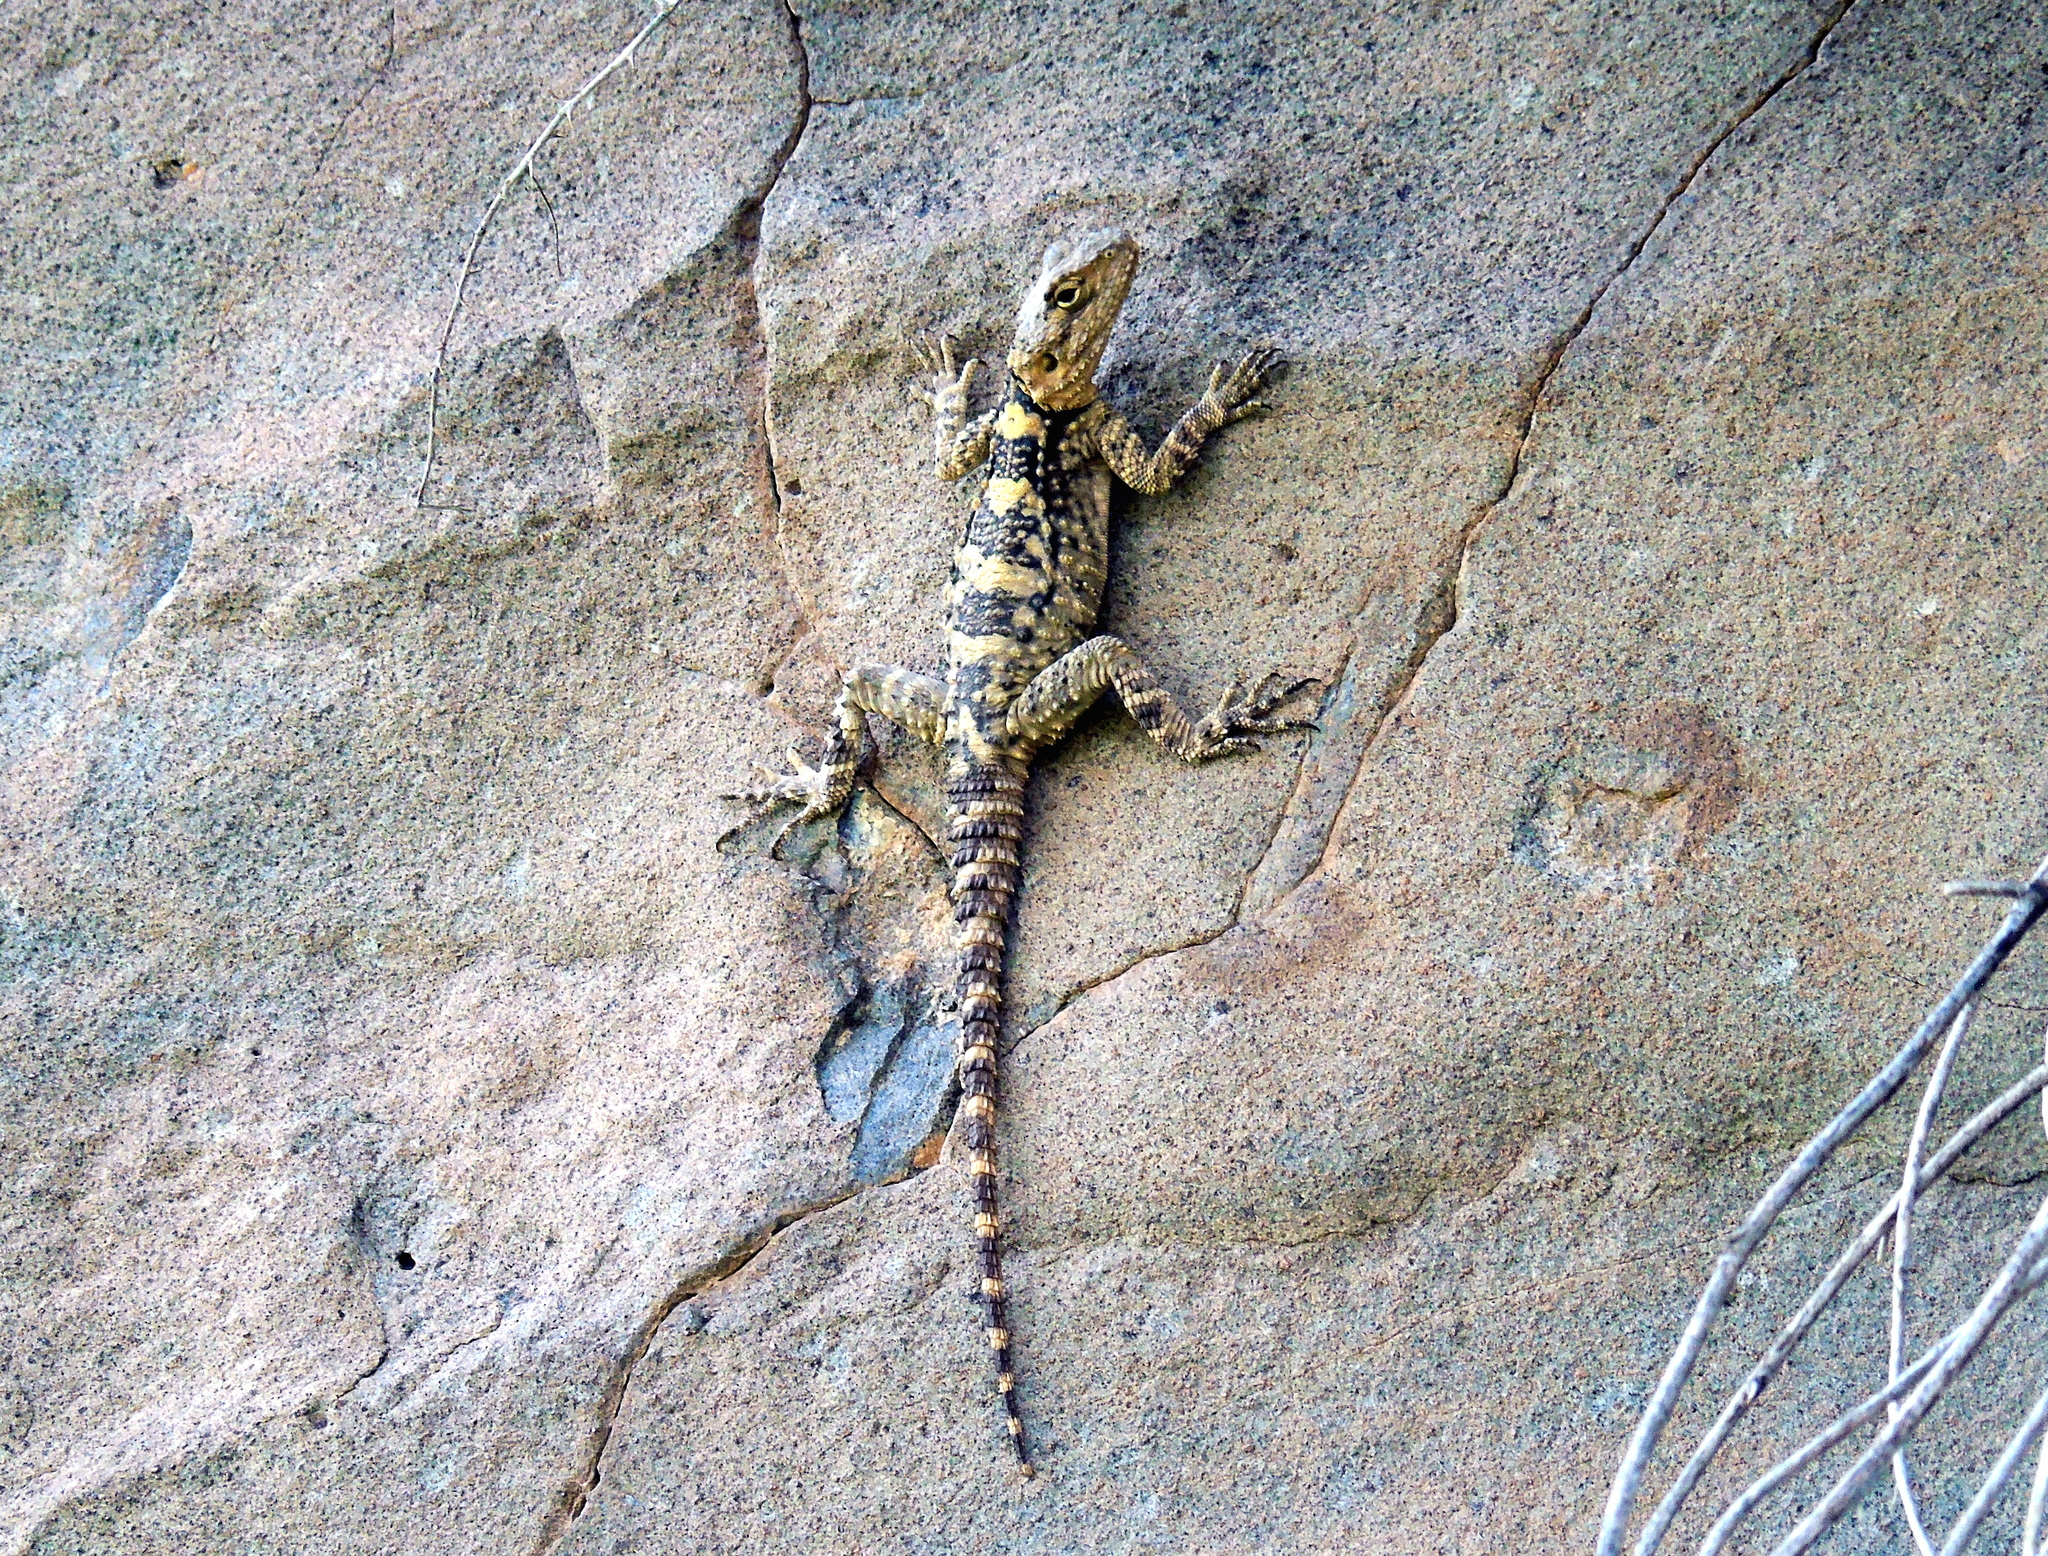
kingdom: Animalia
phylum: Chordata
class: Squamata
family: Agamidae
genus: Stellagama
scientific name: Stellagama stellio
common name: Starred agama
